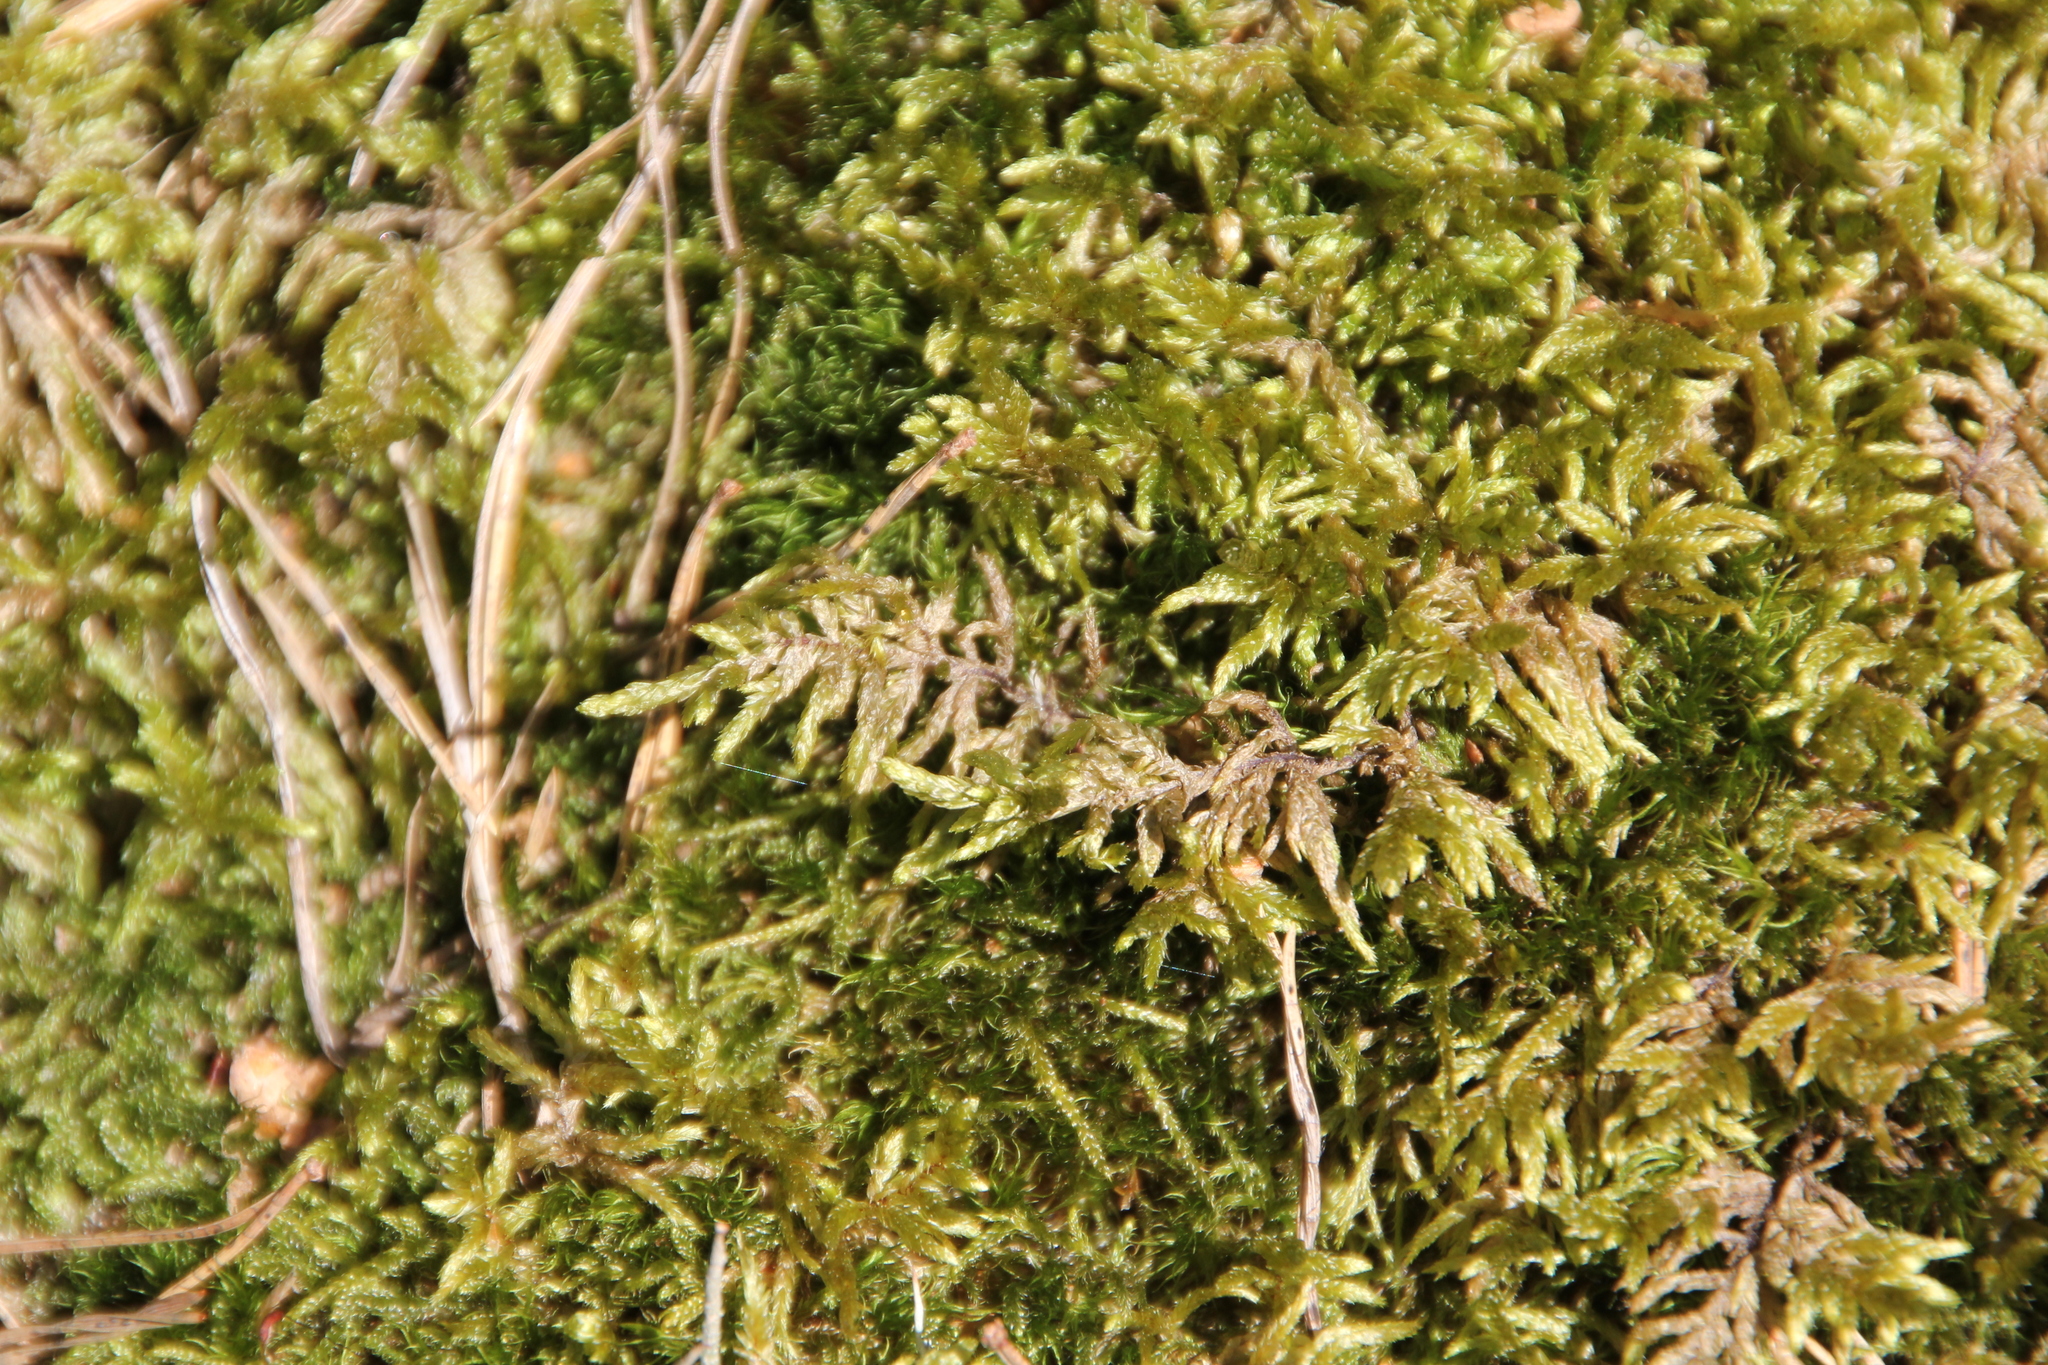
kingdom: Plantae
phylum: Bryophyta
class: Bryopsida
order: Hypnales
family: Hylocomiaceae
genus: Pleurozium
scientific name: Pleurozium schreberi
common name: Red-stemmed feather moss
